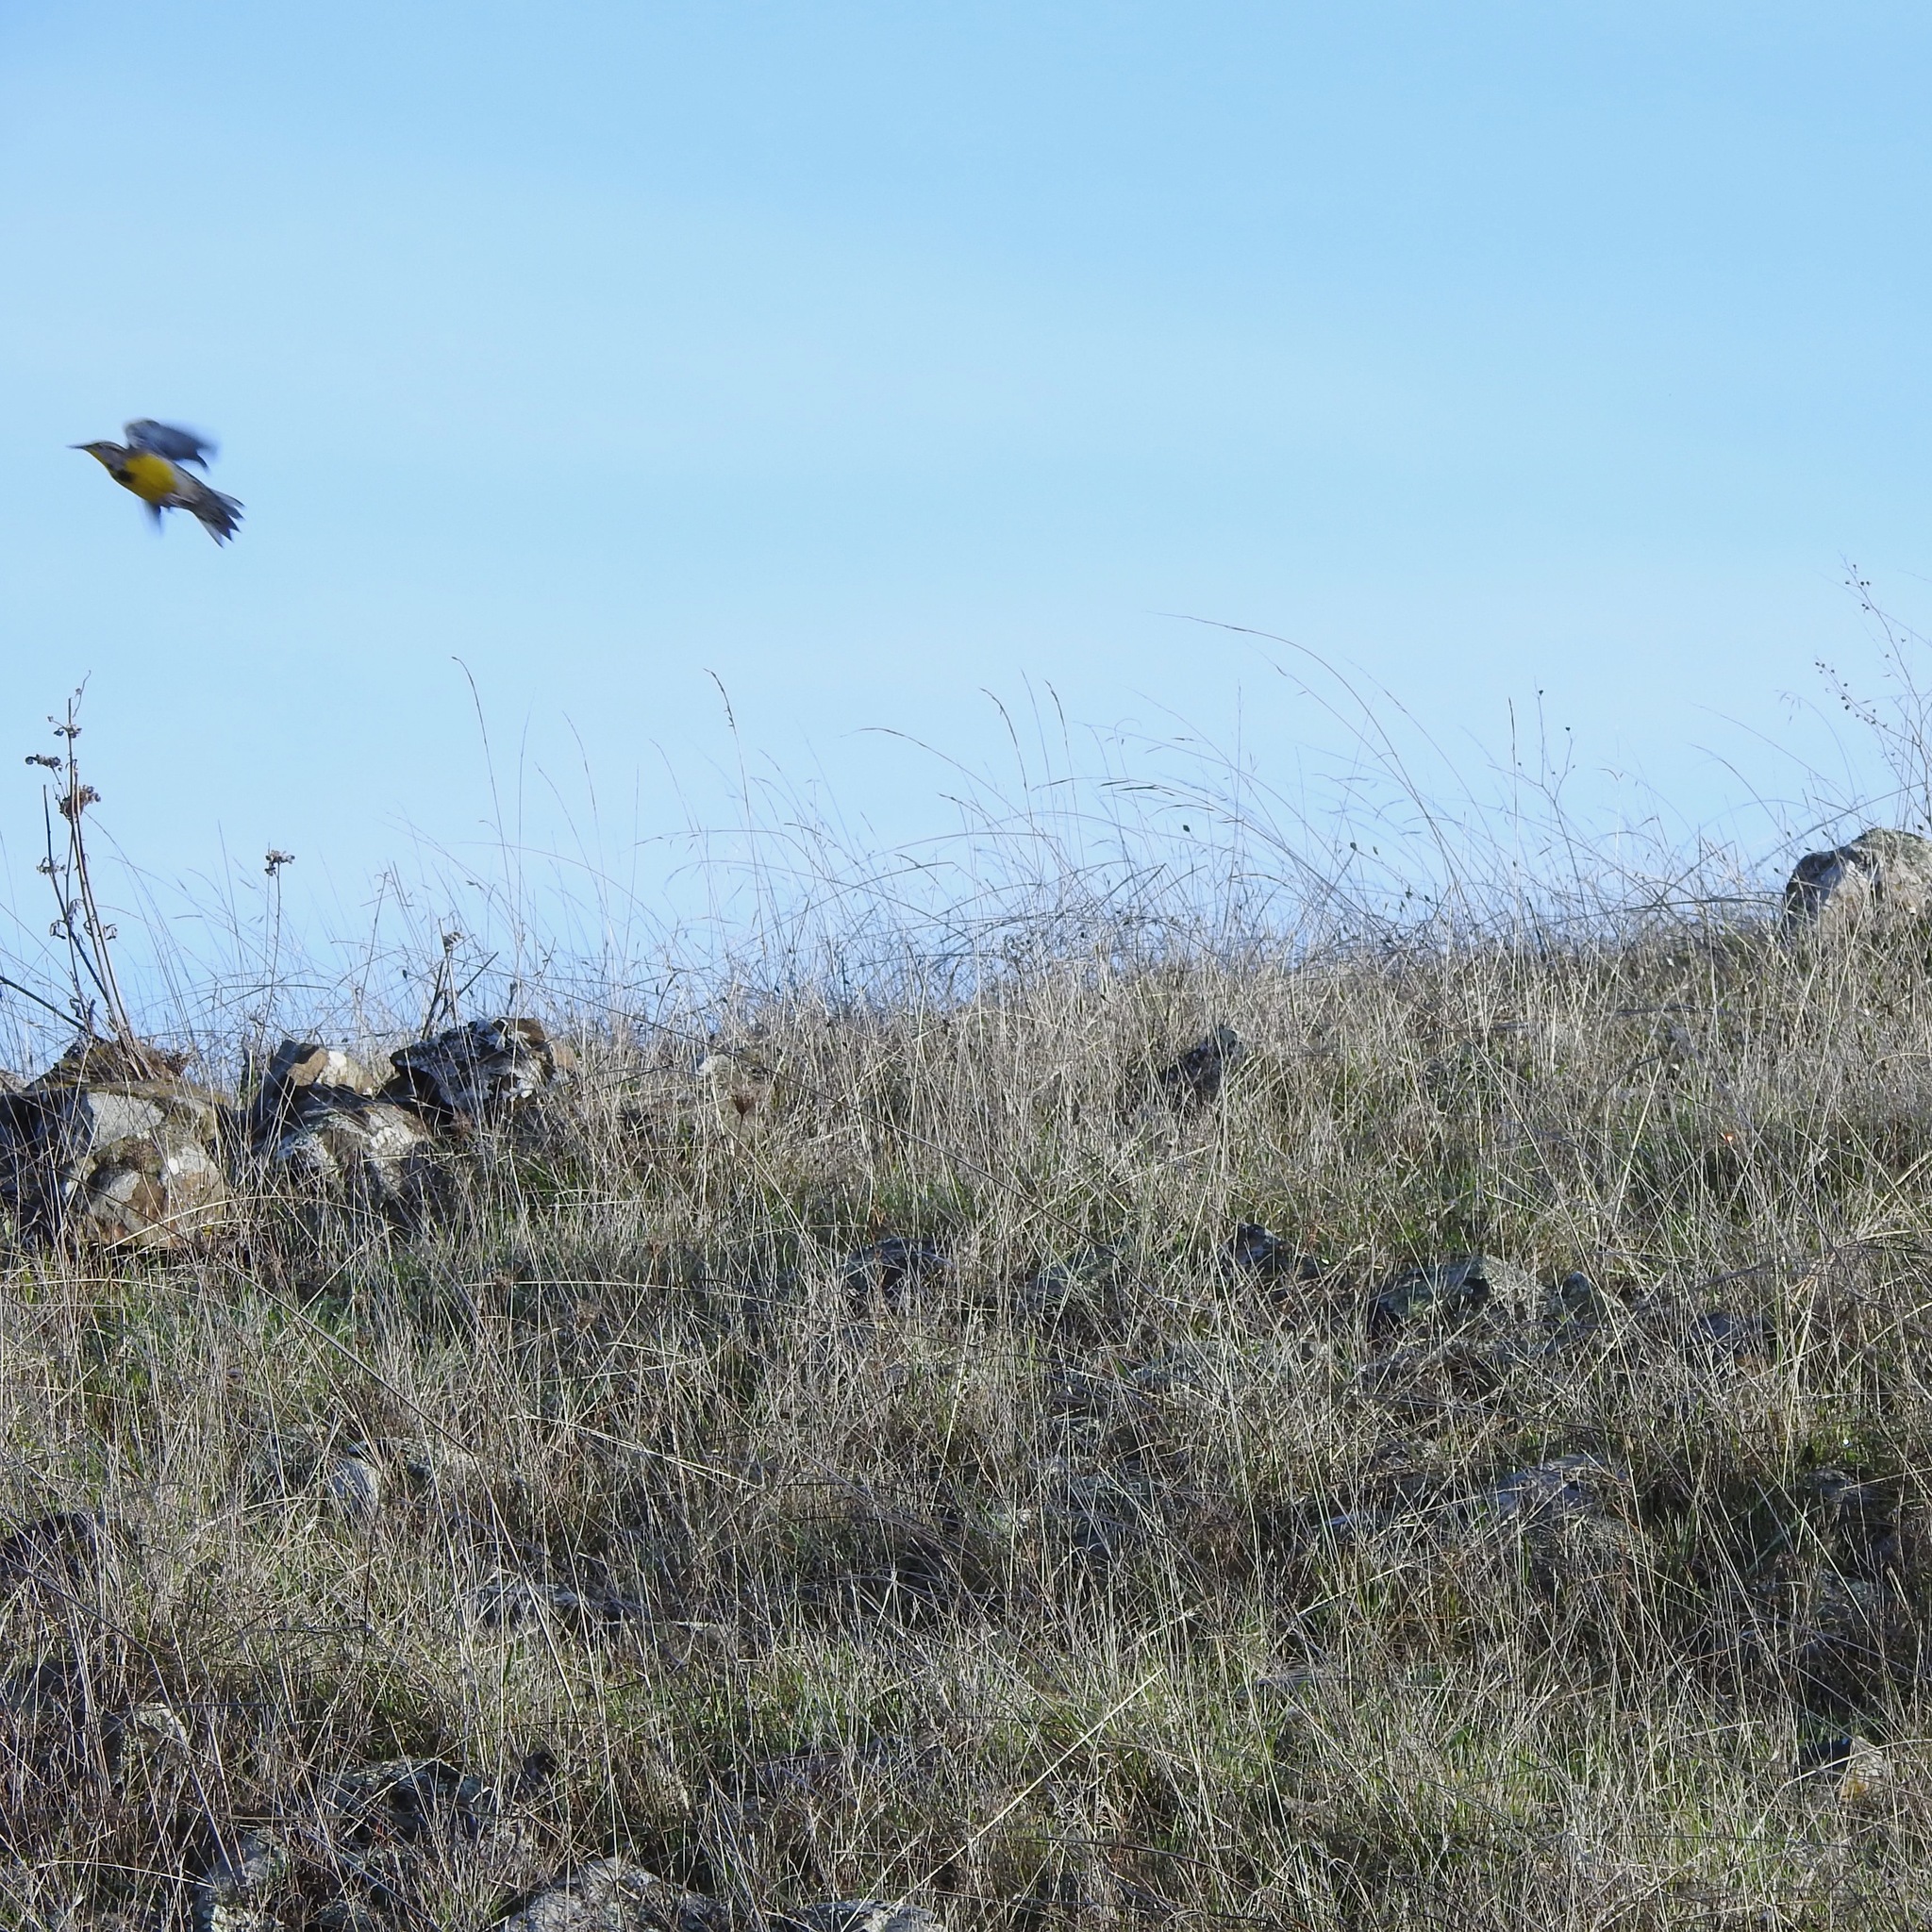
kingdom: Animalia
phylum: Chordata
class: Aves
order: Passeriformes
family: Icteridae
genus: Sturnella
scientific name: Sturnella neglecta
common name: Western meadowlark
